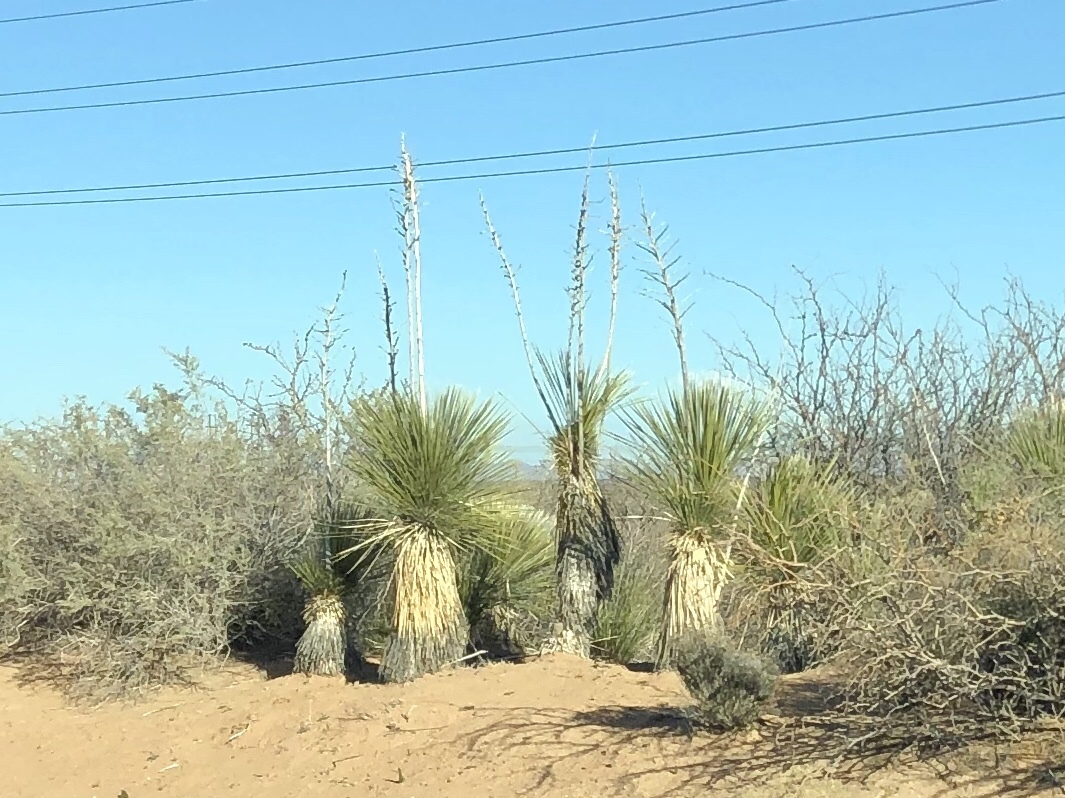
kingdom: Plantae
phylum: Tracheophyta
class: Liliopsida
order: Asparagales
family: Asparagaceae
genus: Yucca
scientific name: Yucca elata
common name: Palmella
